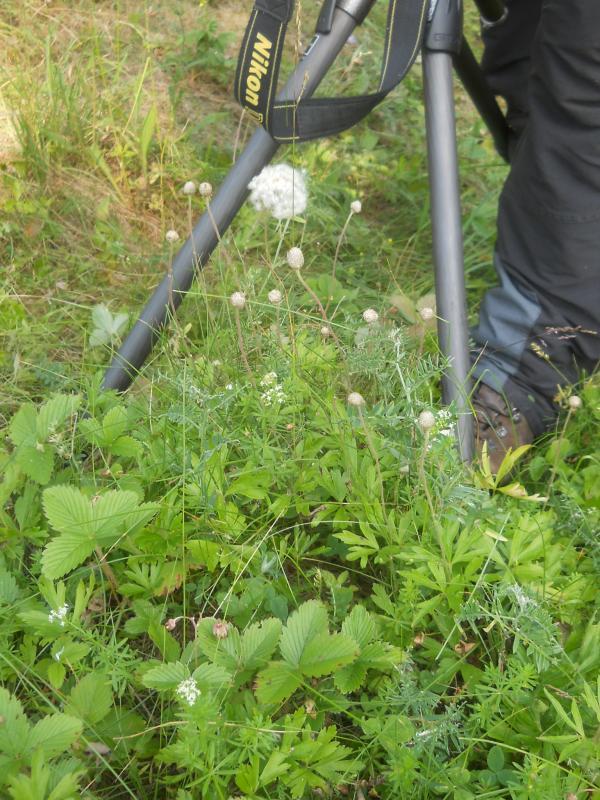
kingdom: Plantae
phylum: Tracheophyta
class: Magnoliopsida
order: Ranunculales
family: Ranunculaceae
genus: Anemone
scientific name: Anemone sylvestris
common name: Snowdrop anemone
